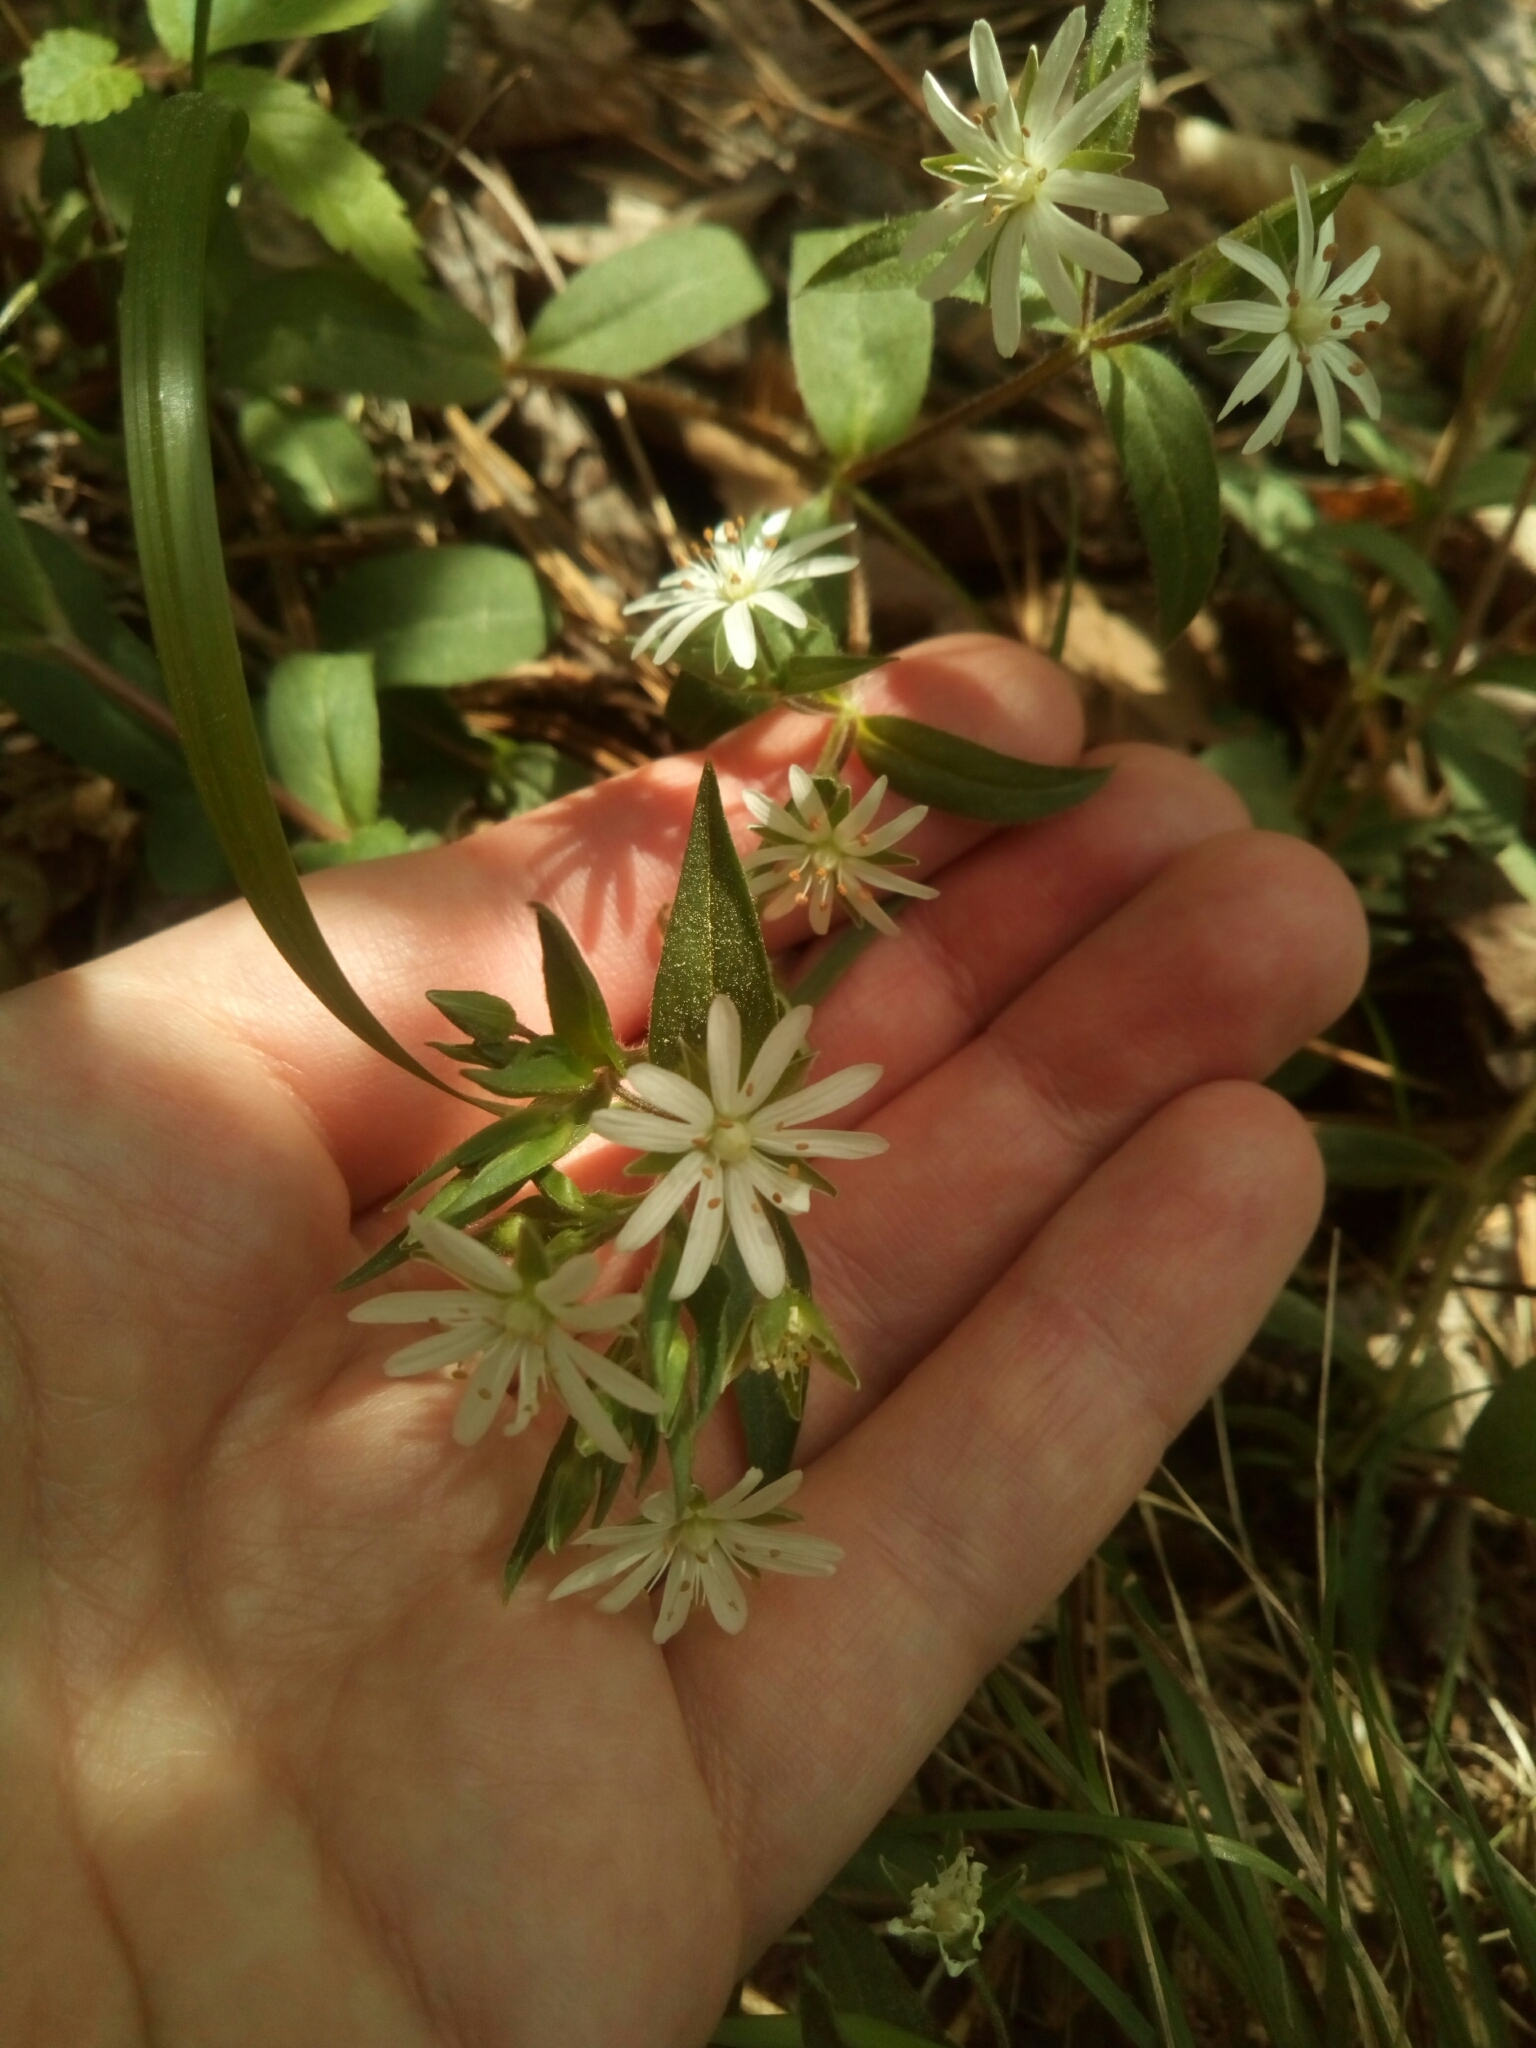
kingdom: Plantae
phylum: Tracheophyta
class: Magnoliopsida
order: Caryophyllales
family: Caryophyllaceae
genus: Stellaria
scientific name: Stellaria pubera
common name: Star chickweed
